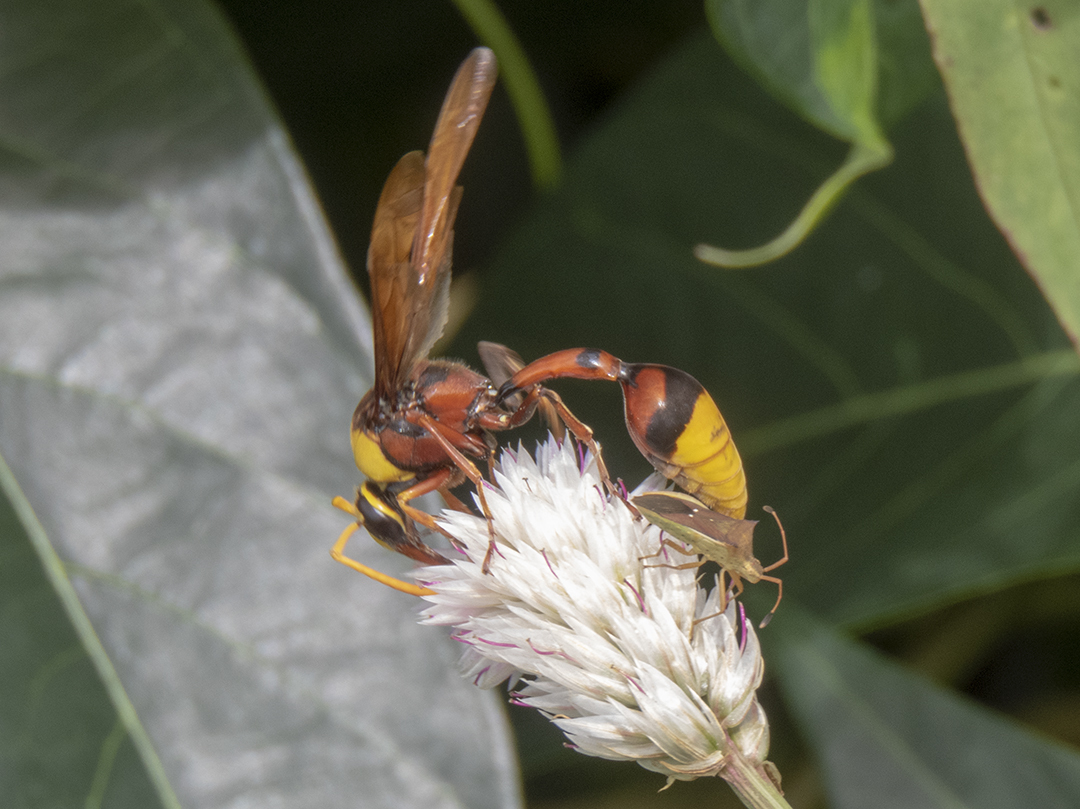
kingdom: Animalia
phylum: Arthropoda
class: Insecta
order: Hymenoptera
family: Eumenidae
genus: Delta
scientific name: Delta pyriforme
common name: Wasp
